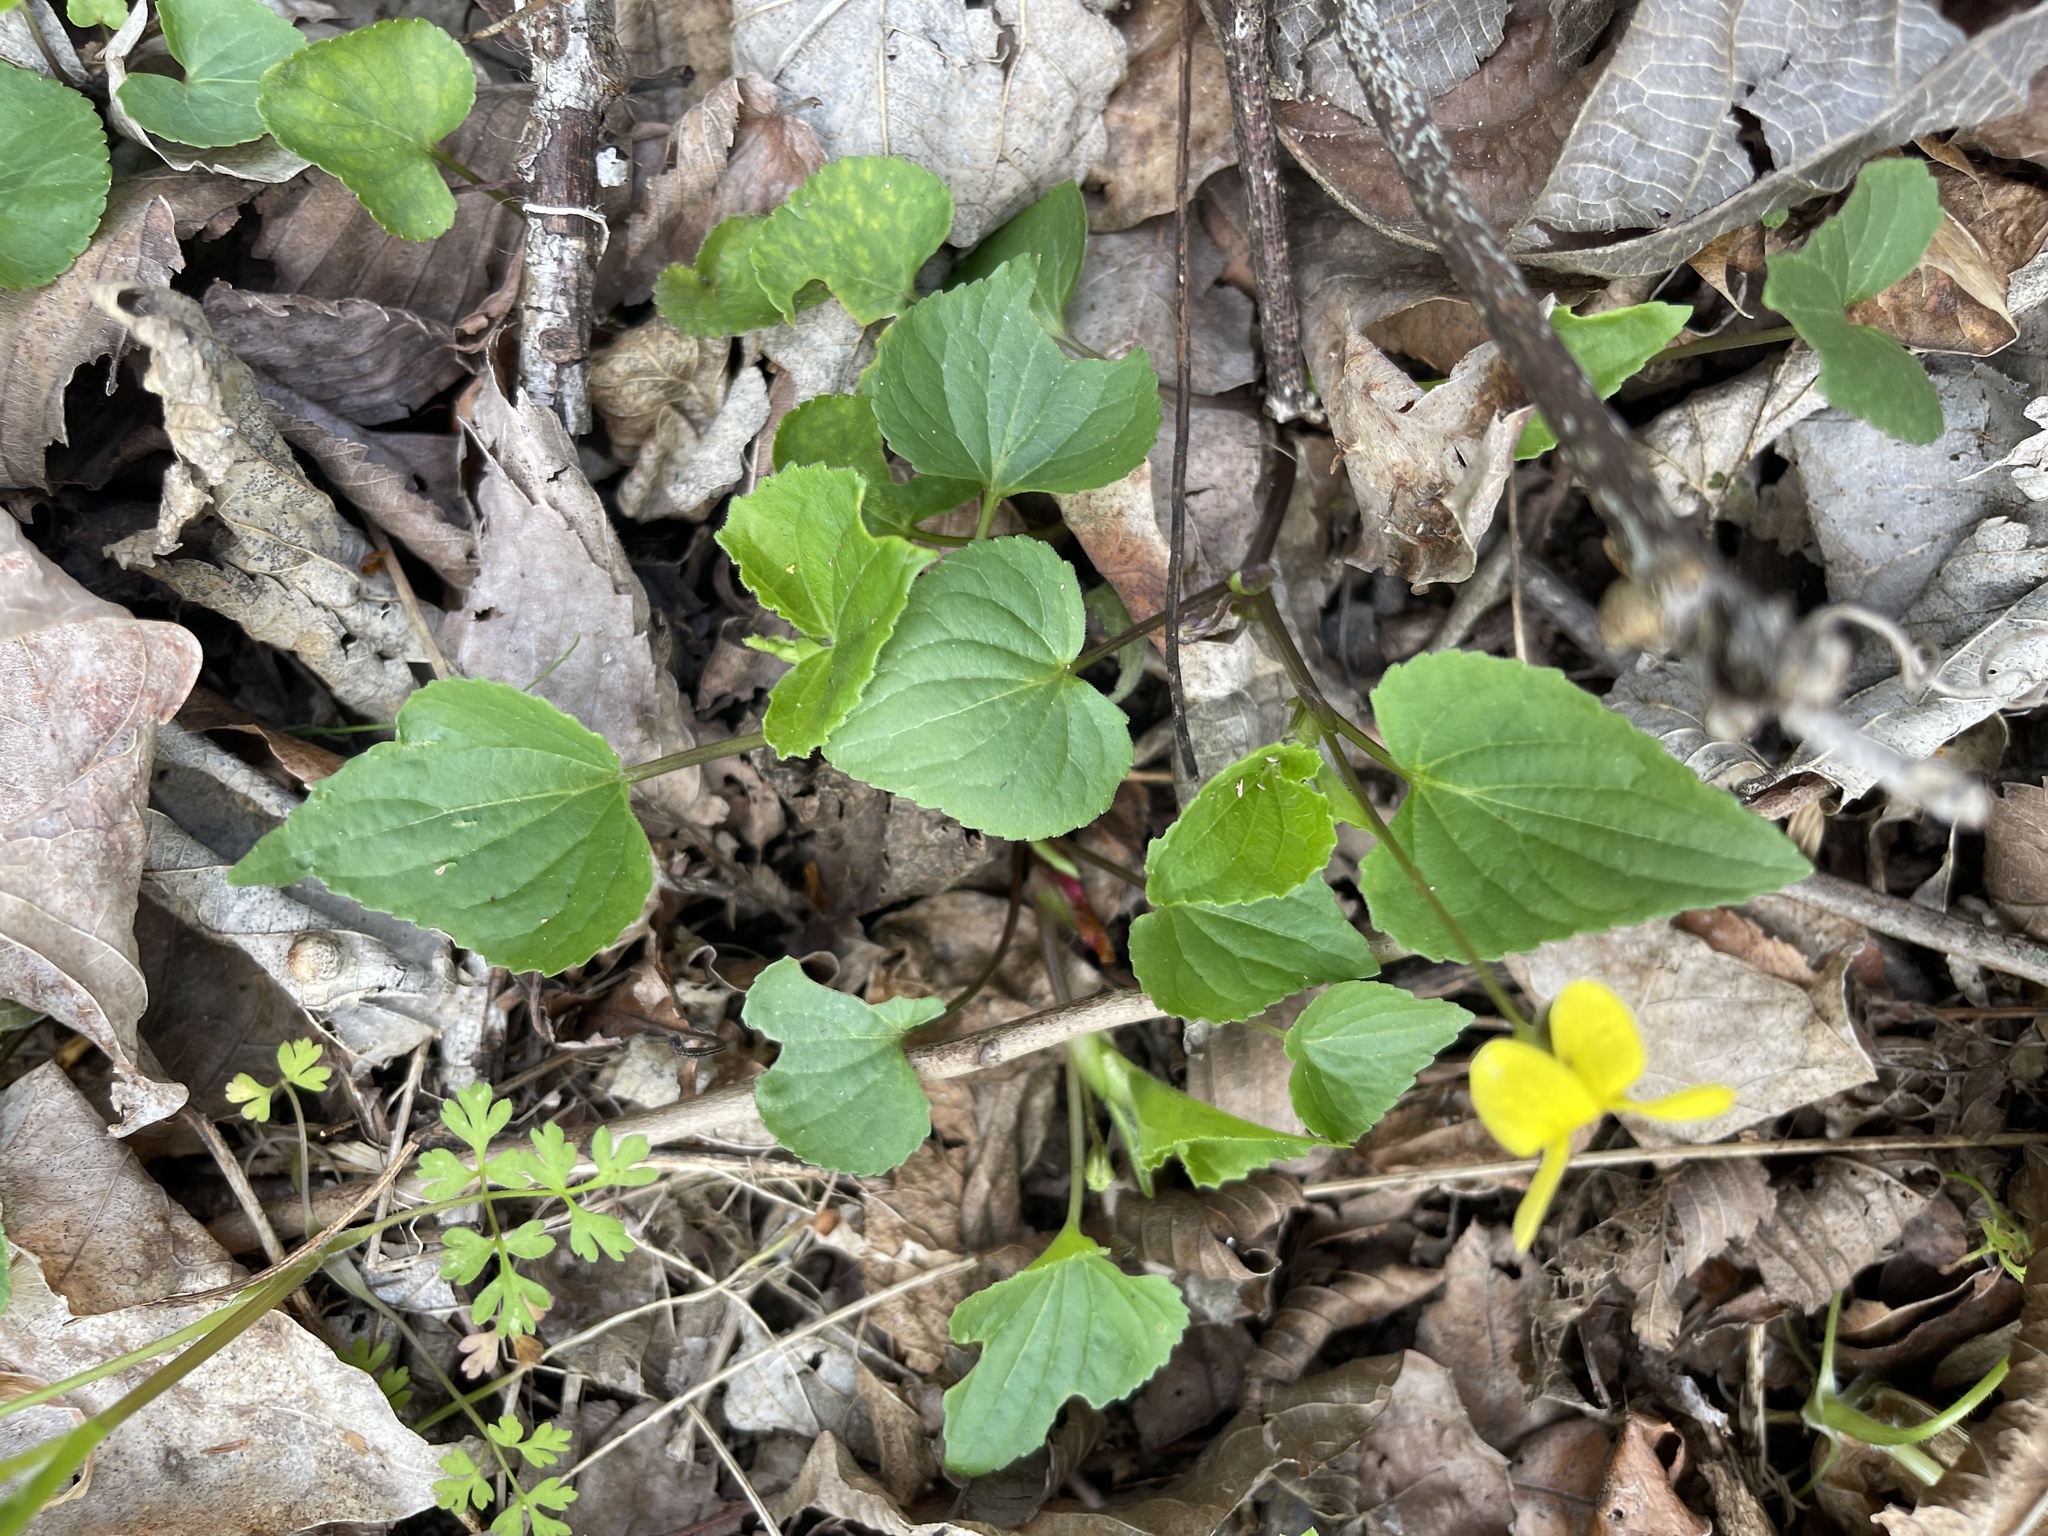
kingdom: Plantae
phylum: Tracheophyta
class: Magnoliopsida
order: Malpighiales
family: Violaceae
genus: Viola
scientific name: Viola eriocarpa
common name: Smooth yellow violet
